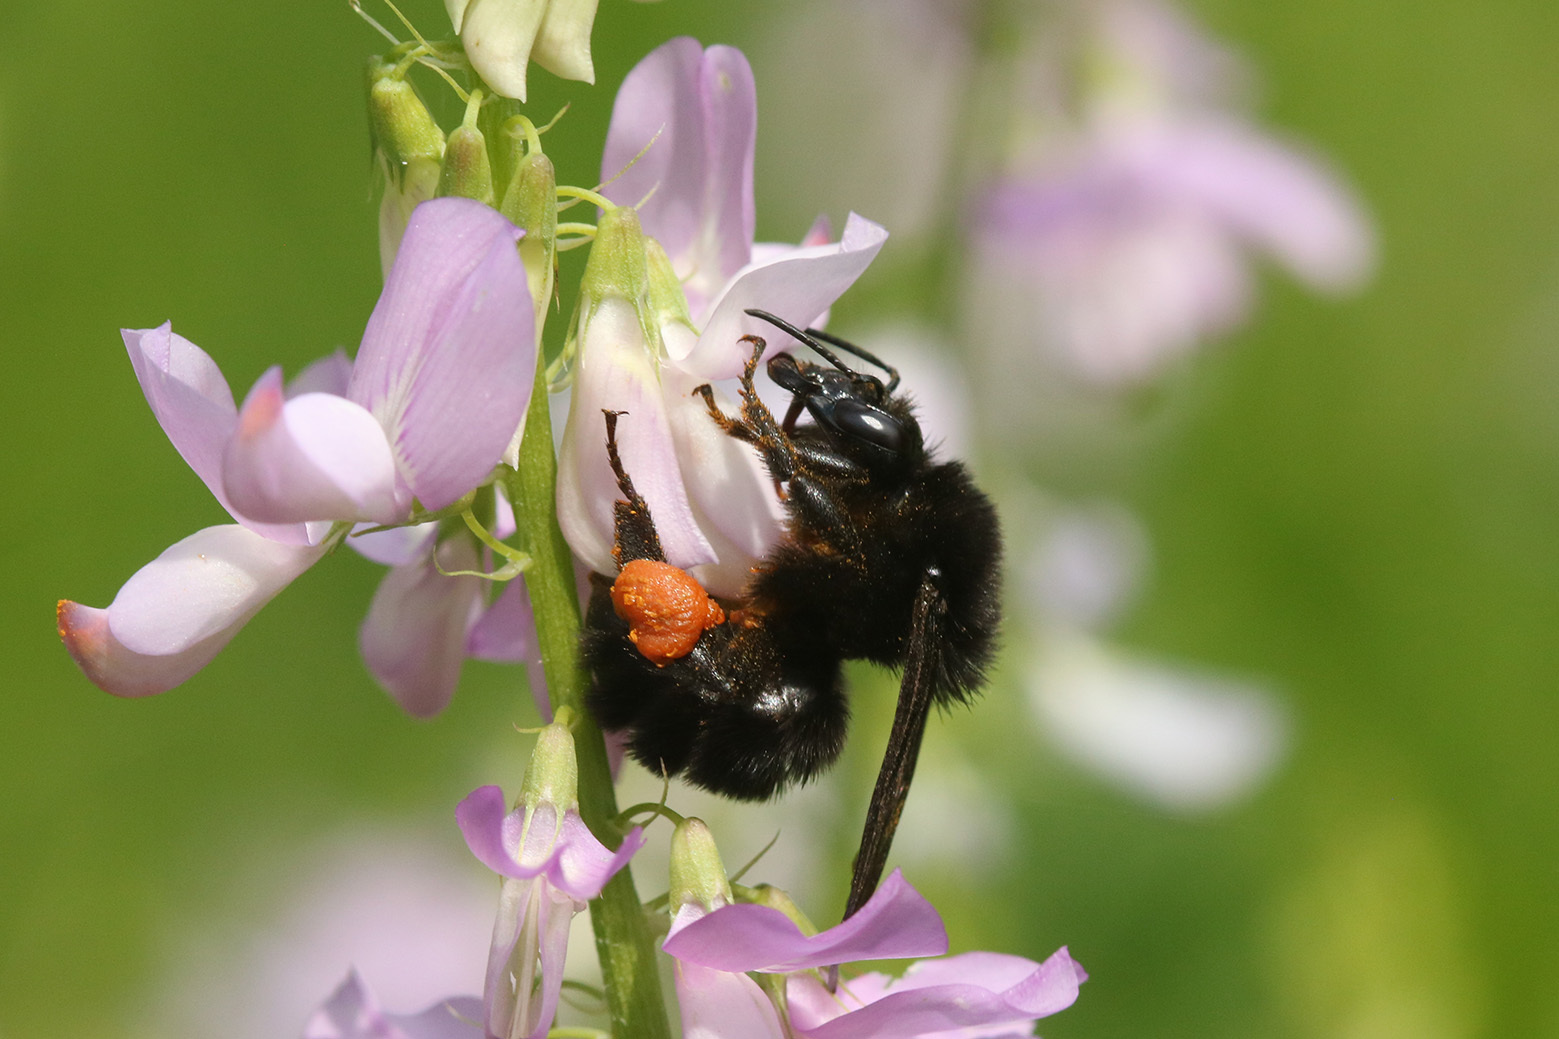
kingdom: Animalia
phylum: Arthropoda
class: Insecta
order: Hymenoptera
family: Apidae
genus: Bombus
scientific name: Bombus pauloensis
